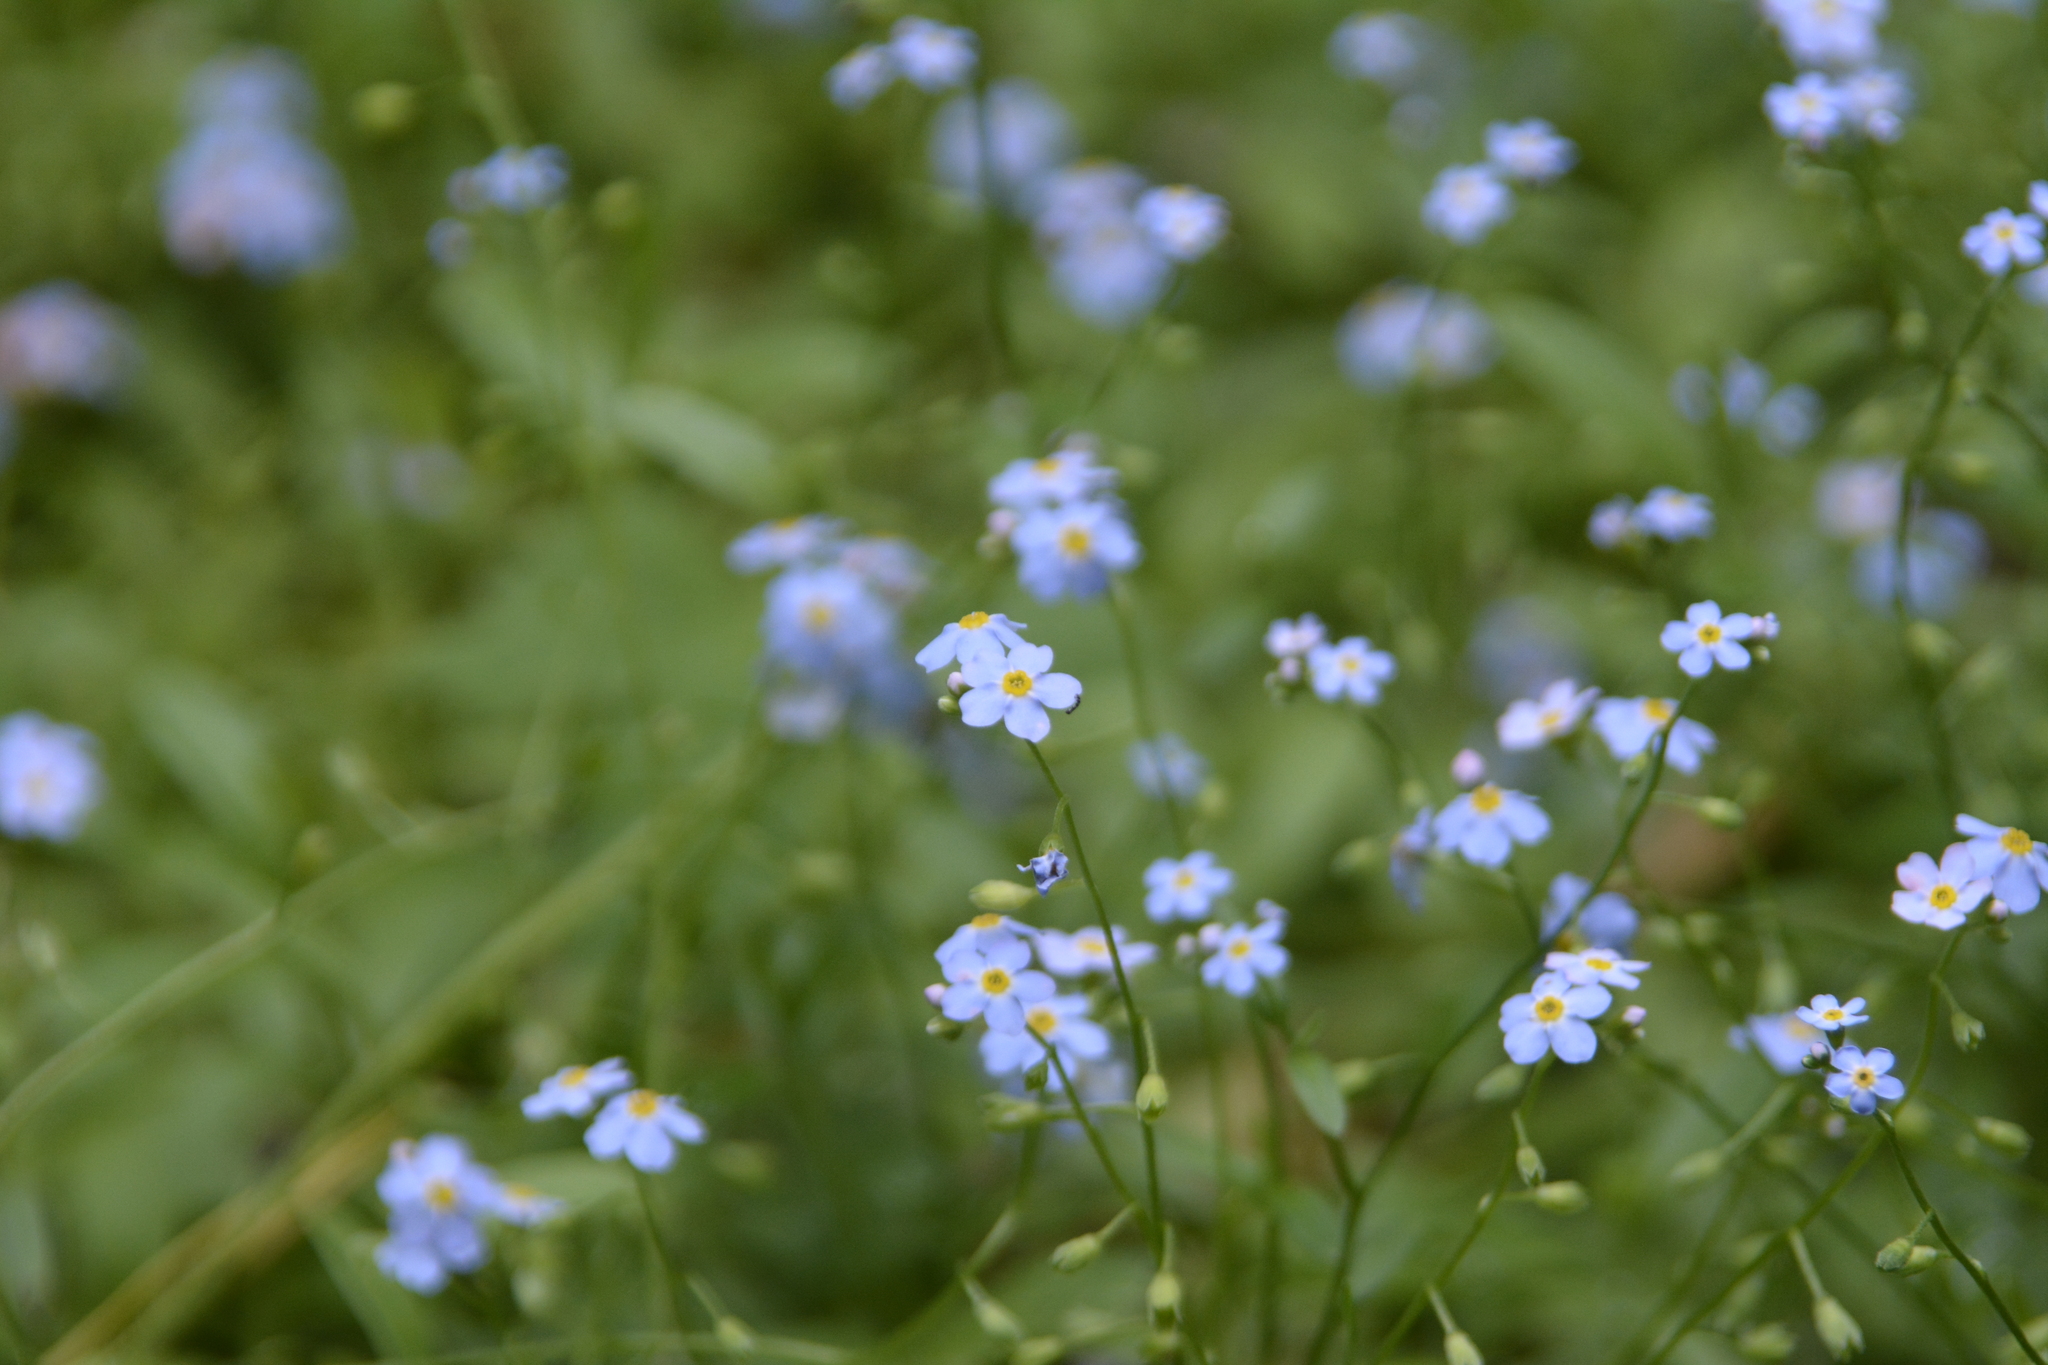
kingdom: Plantae
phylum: Tracheophyta
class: Magnoliopsida
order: Boraginales
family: Boraginaceae
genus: Myosotis
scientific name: Myosotis scorpioides
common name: Water forget-me-not
